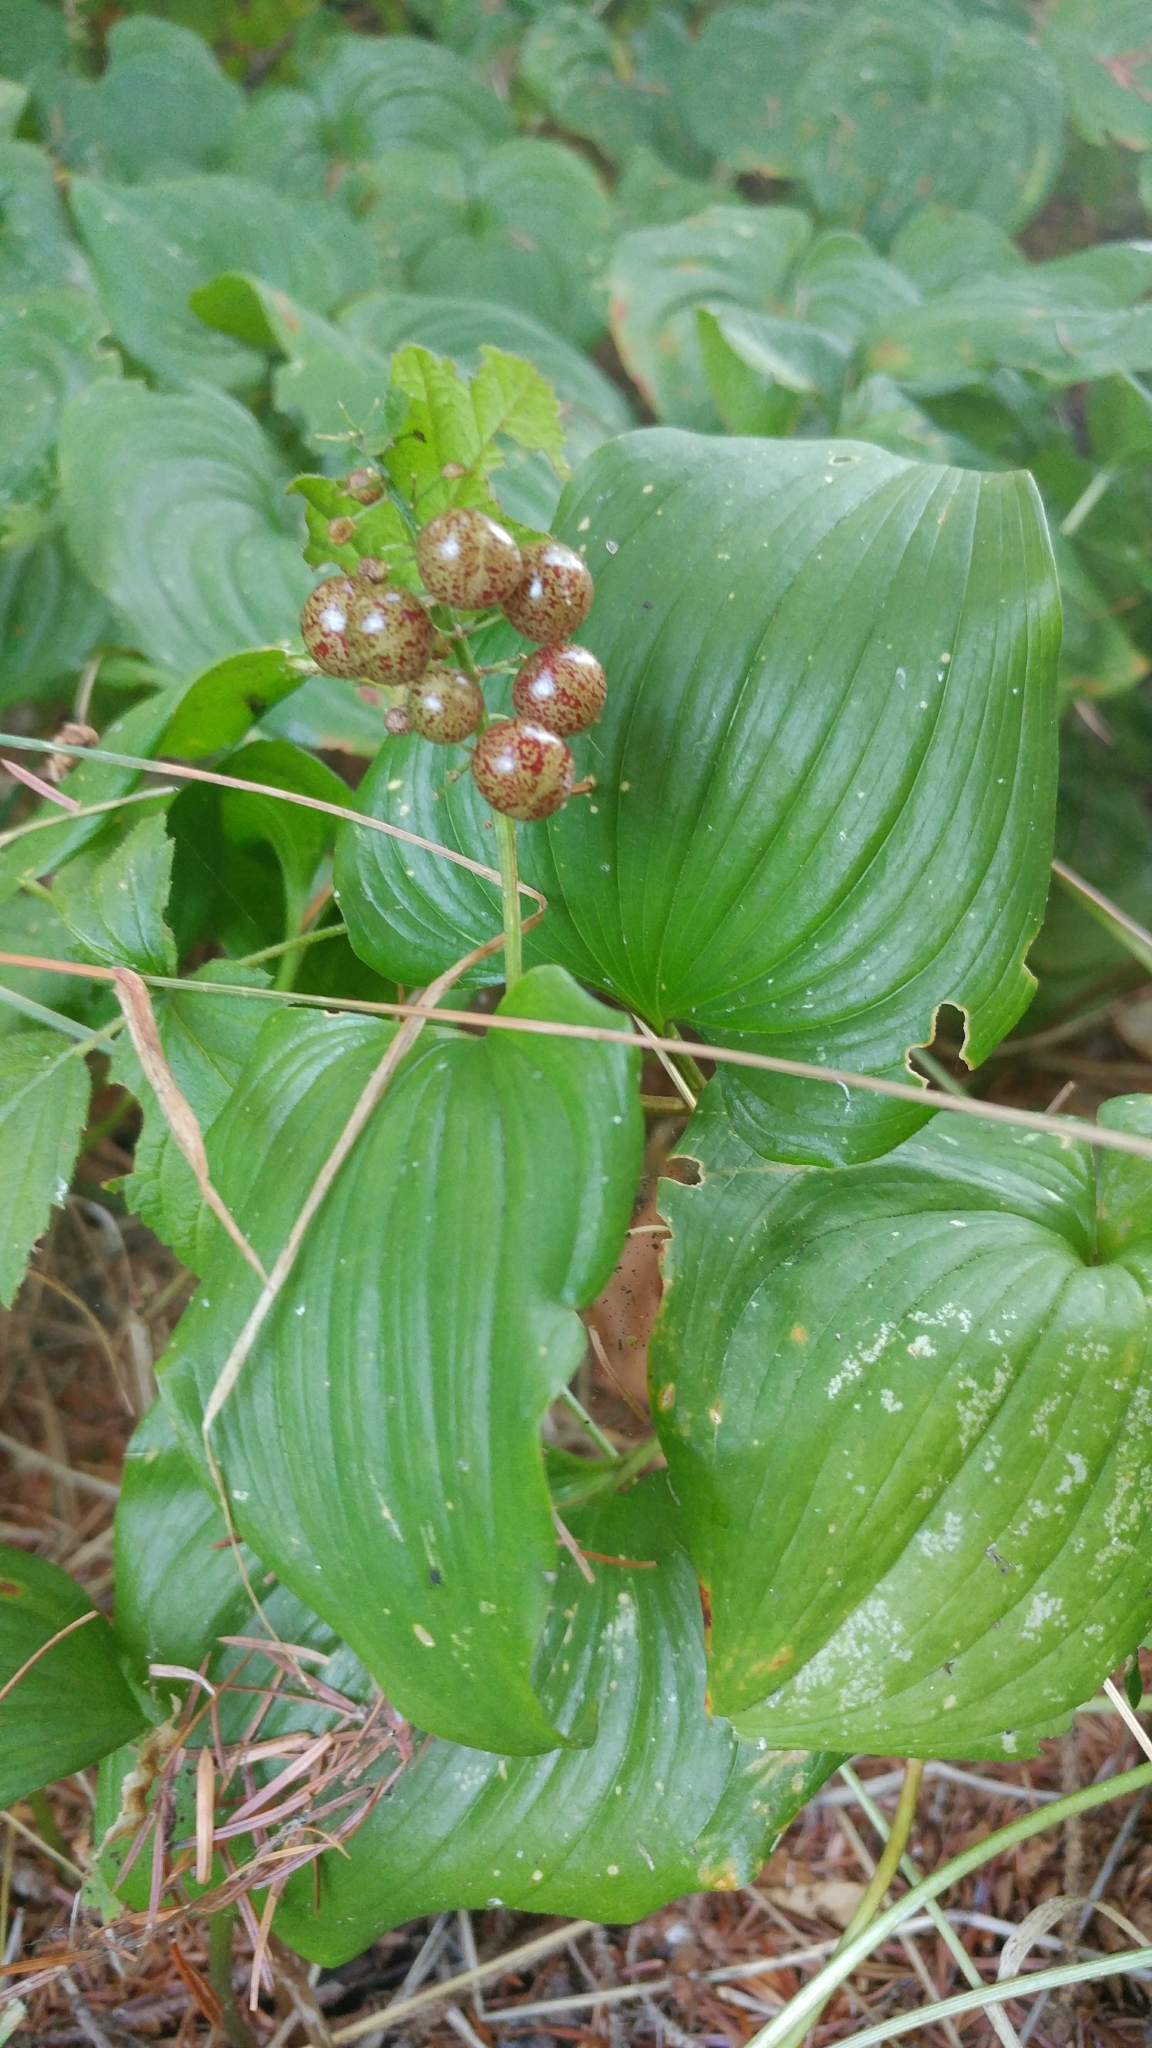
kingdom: Plantae
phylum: Tracheophyta
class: Liliopsida
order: Asparagales
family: Asparagaceae
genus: Maianthemum
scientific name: Maianthemum dilatatum
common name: False lily-of-the-valley
